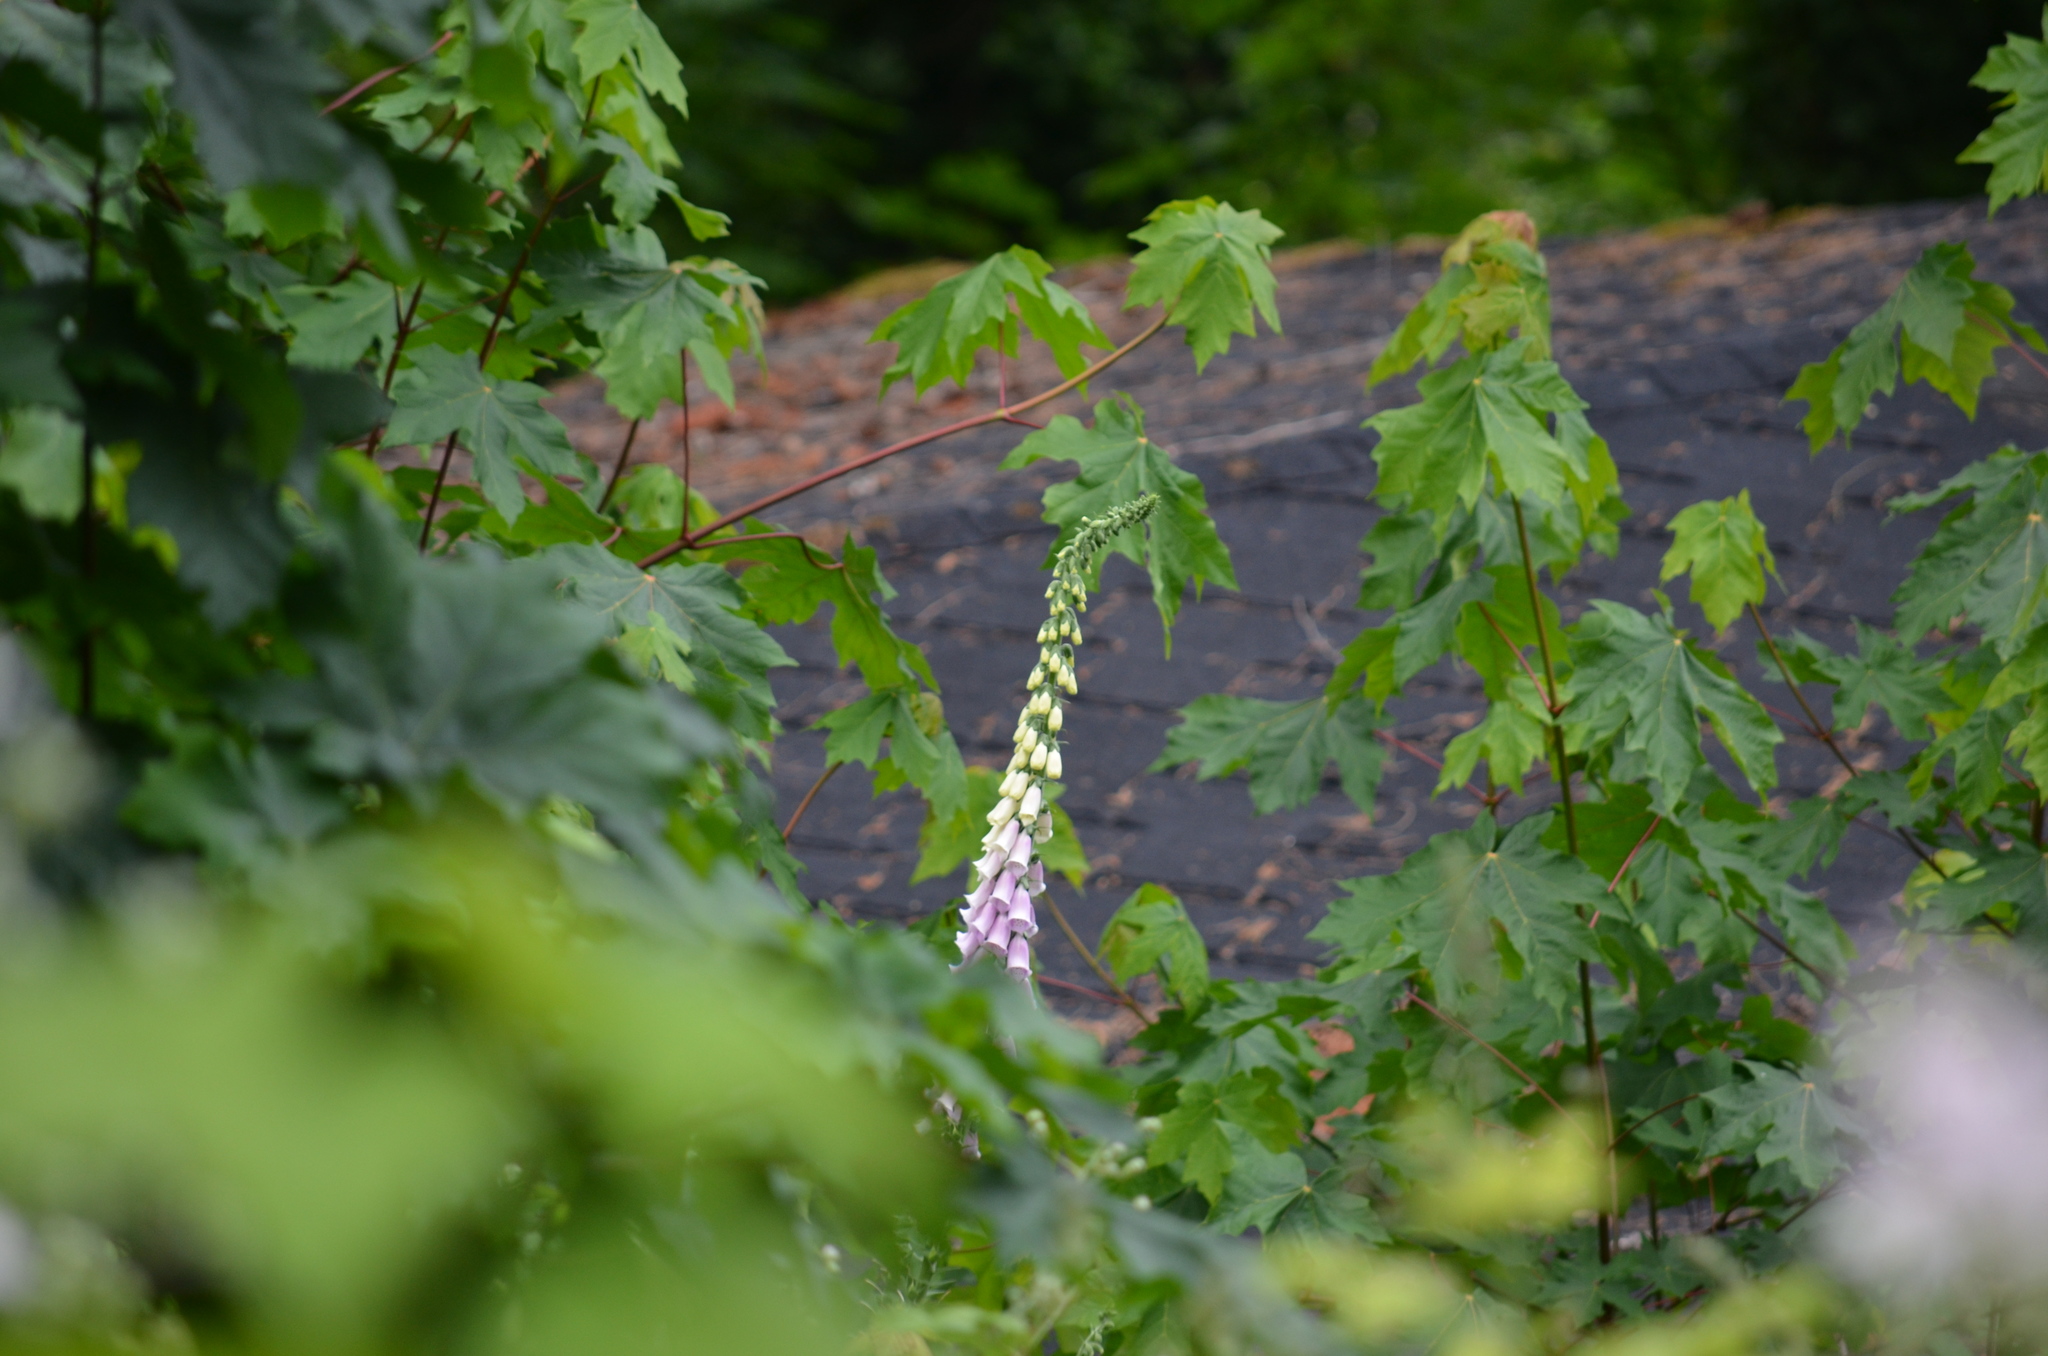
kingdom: Plantae
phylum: Tracheophyta
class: Magnoliopsida
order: Lamiales
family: Plantaginaceae
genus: Digitalis
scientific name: Digitalis purpurea
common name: Foxglove
